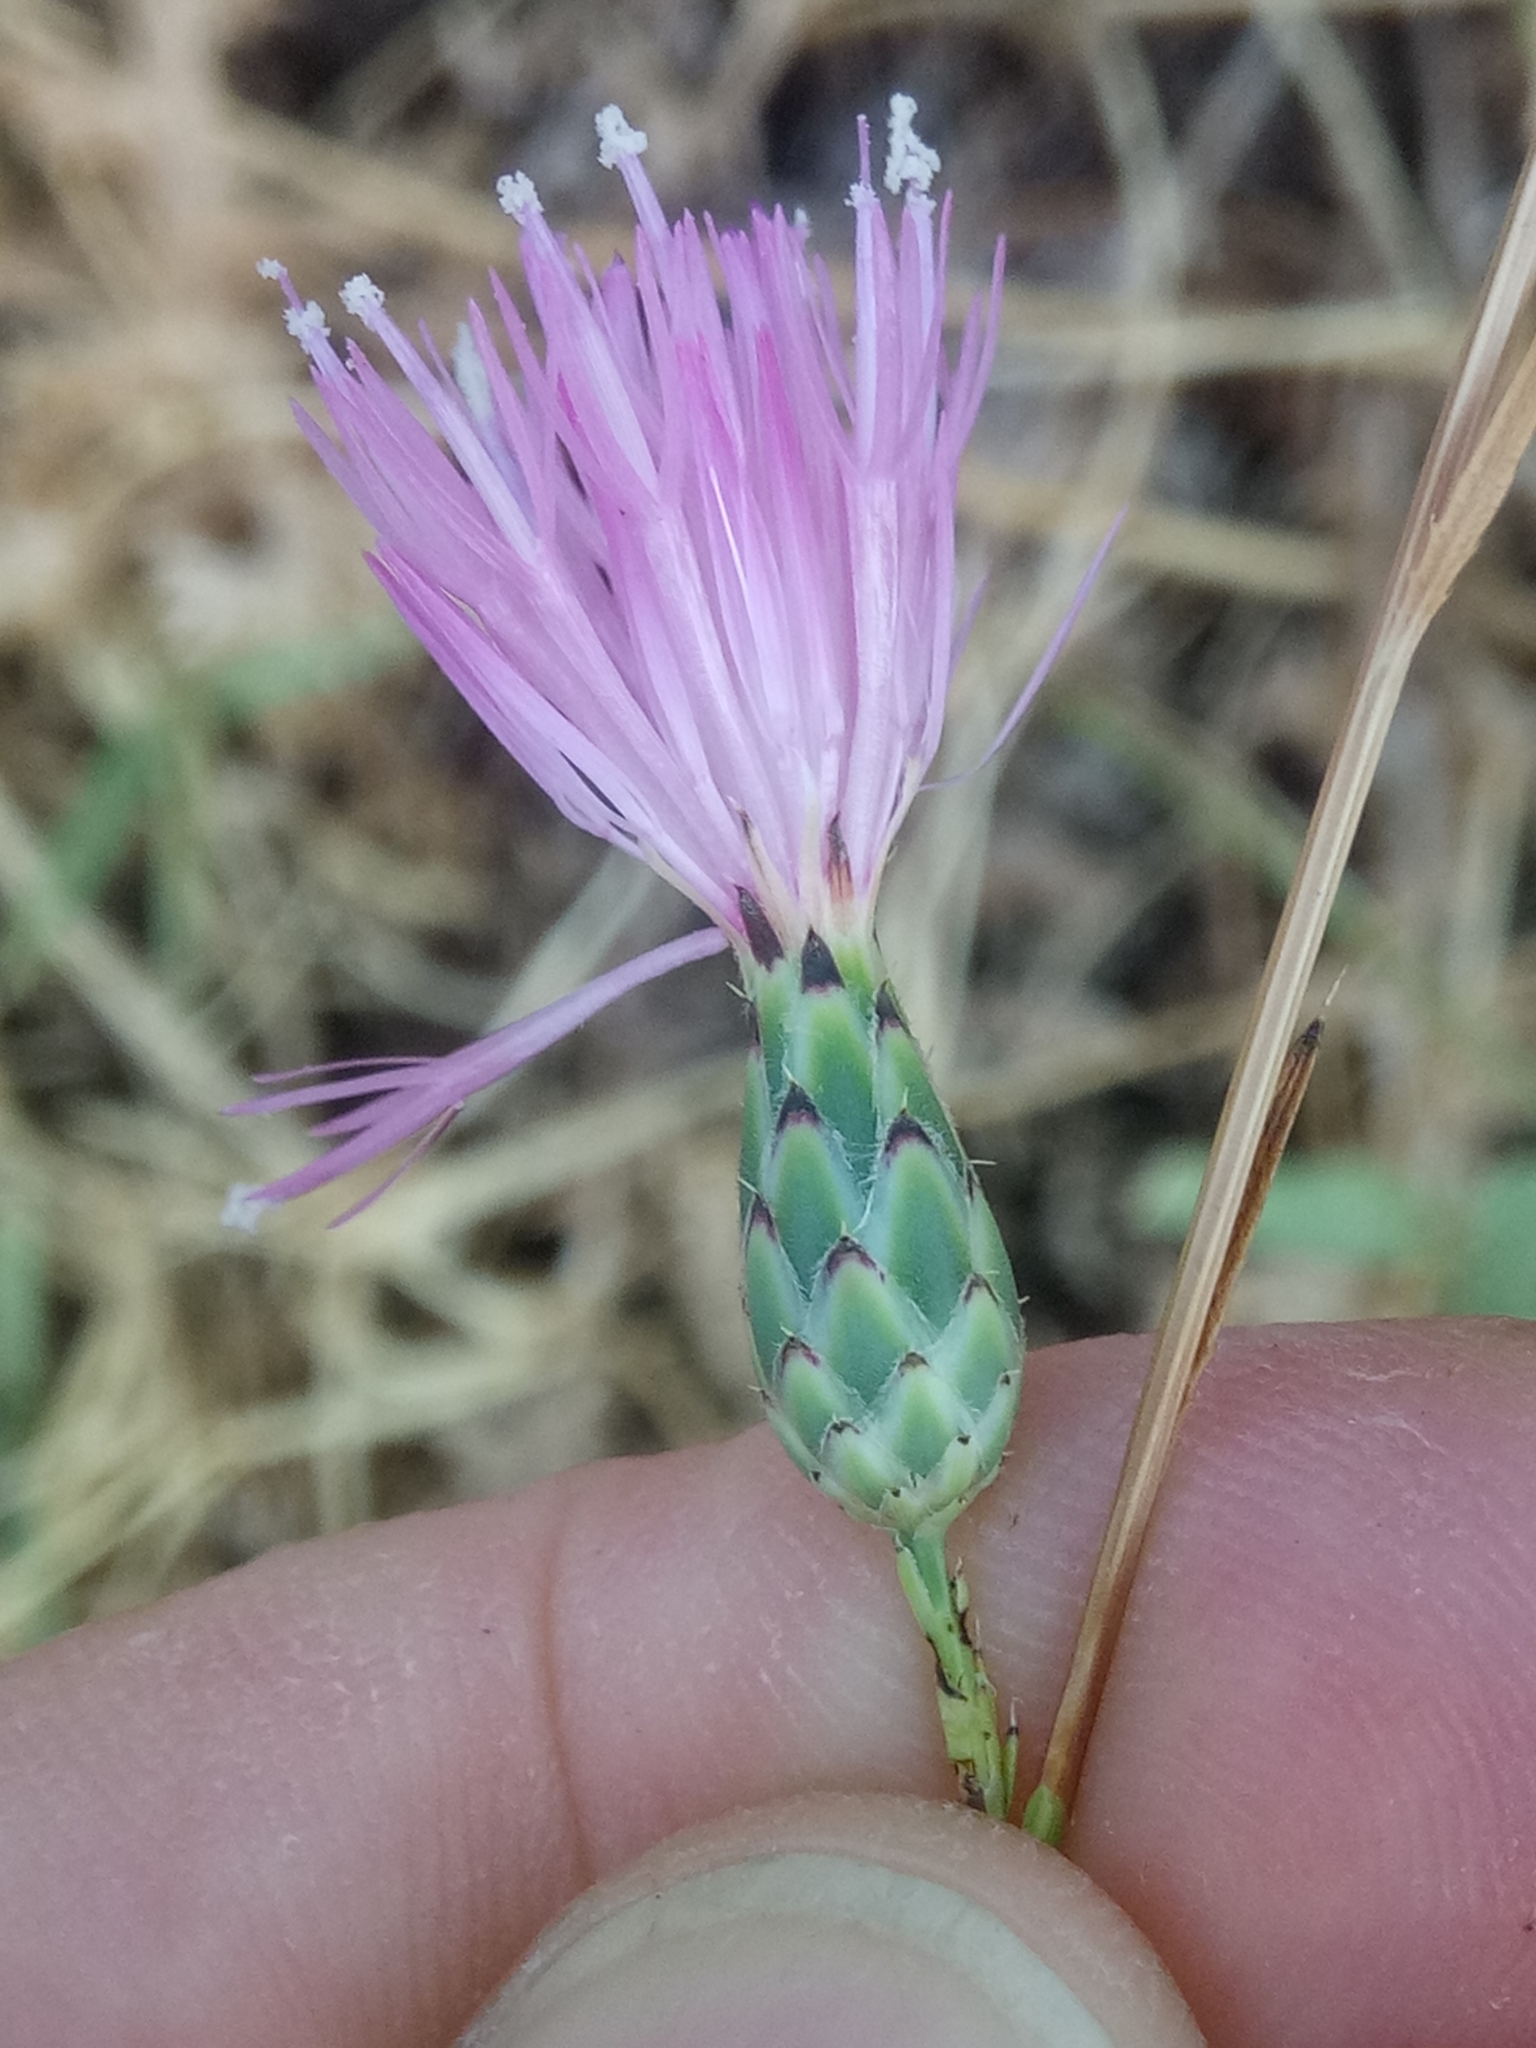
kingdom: Plantae
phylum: Tracheophyta
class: Magnoliopsida
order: Asterales
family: Asteraceae
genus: Mantisalca
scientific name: Mantisalca salmantica
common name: Dagger flower
